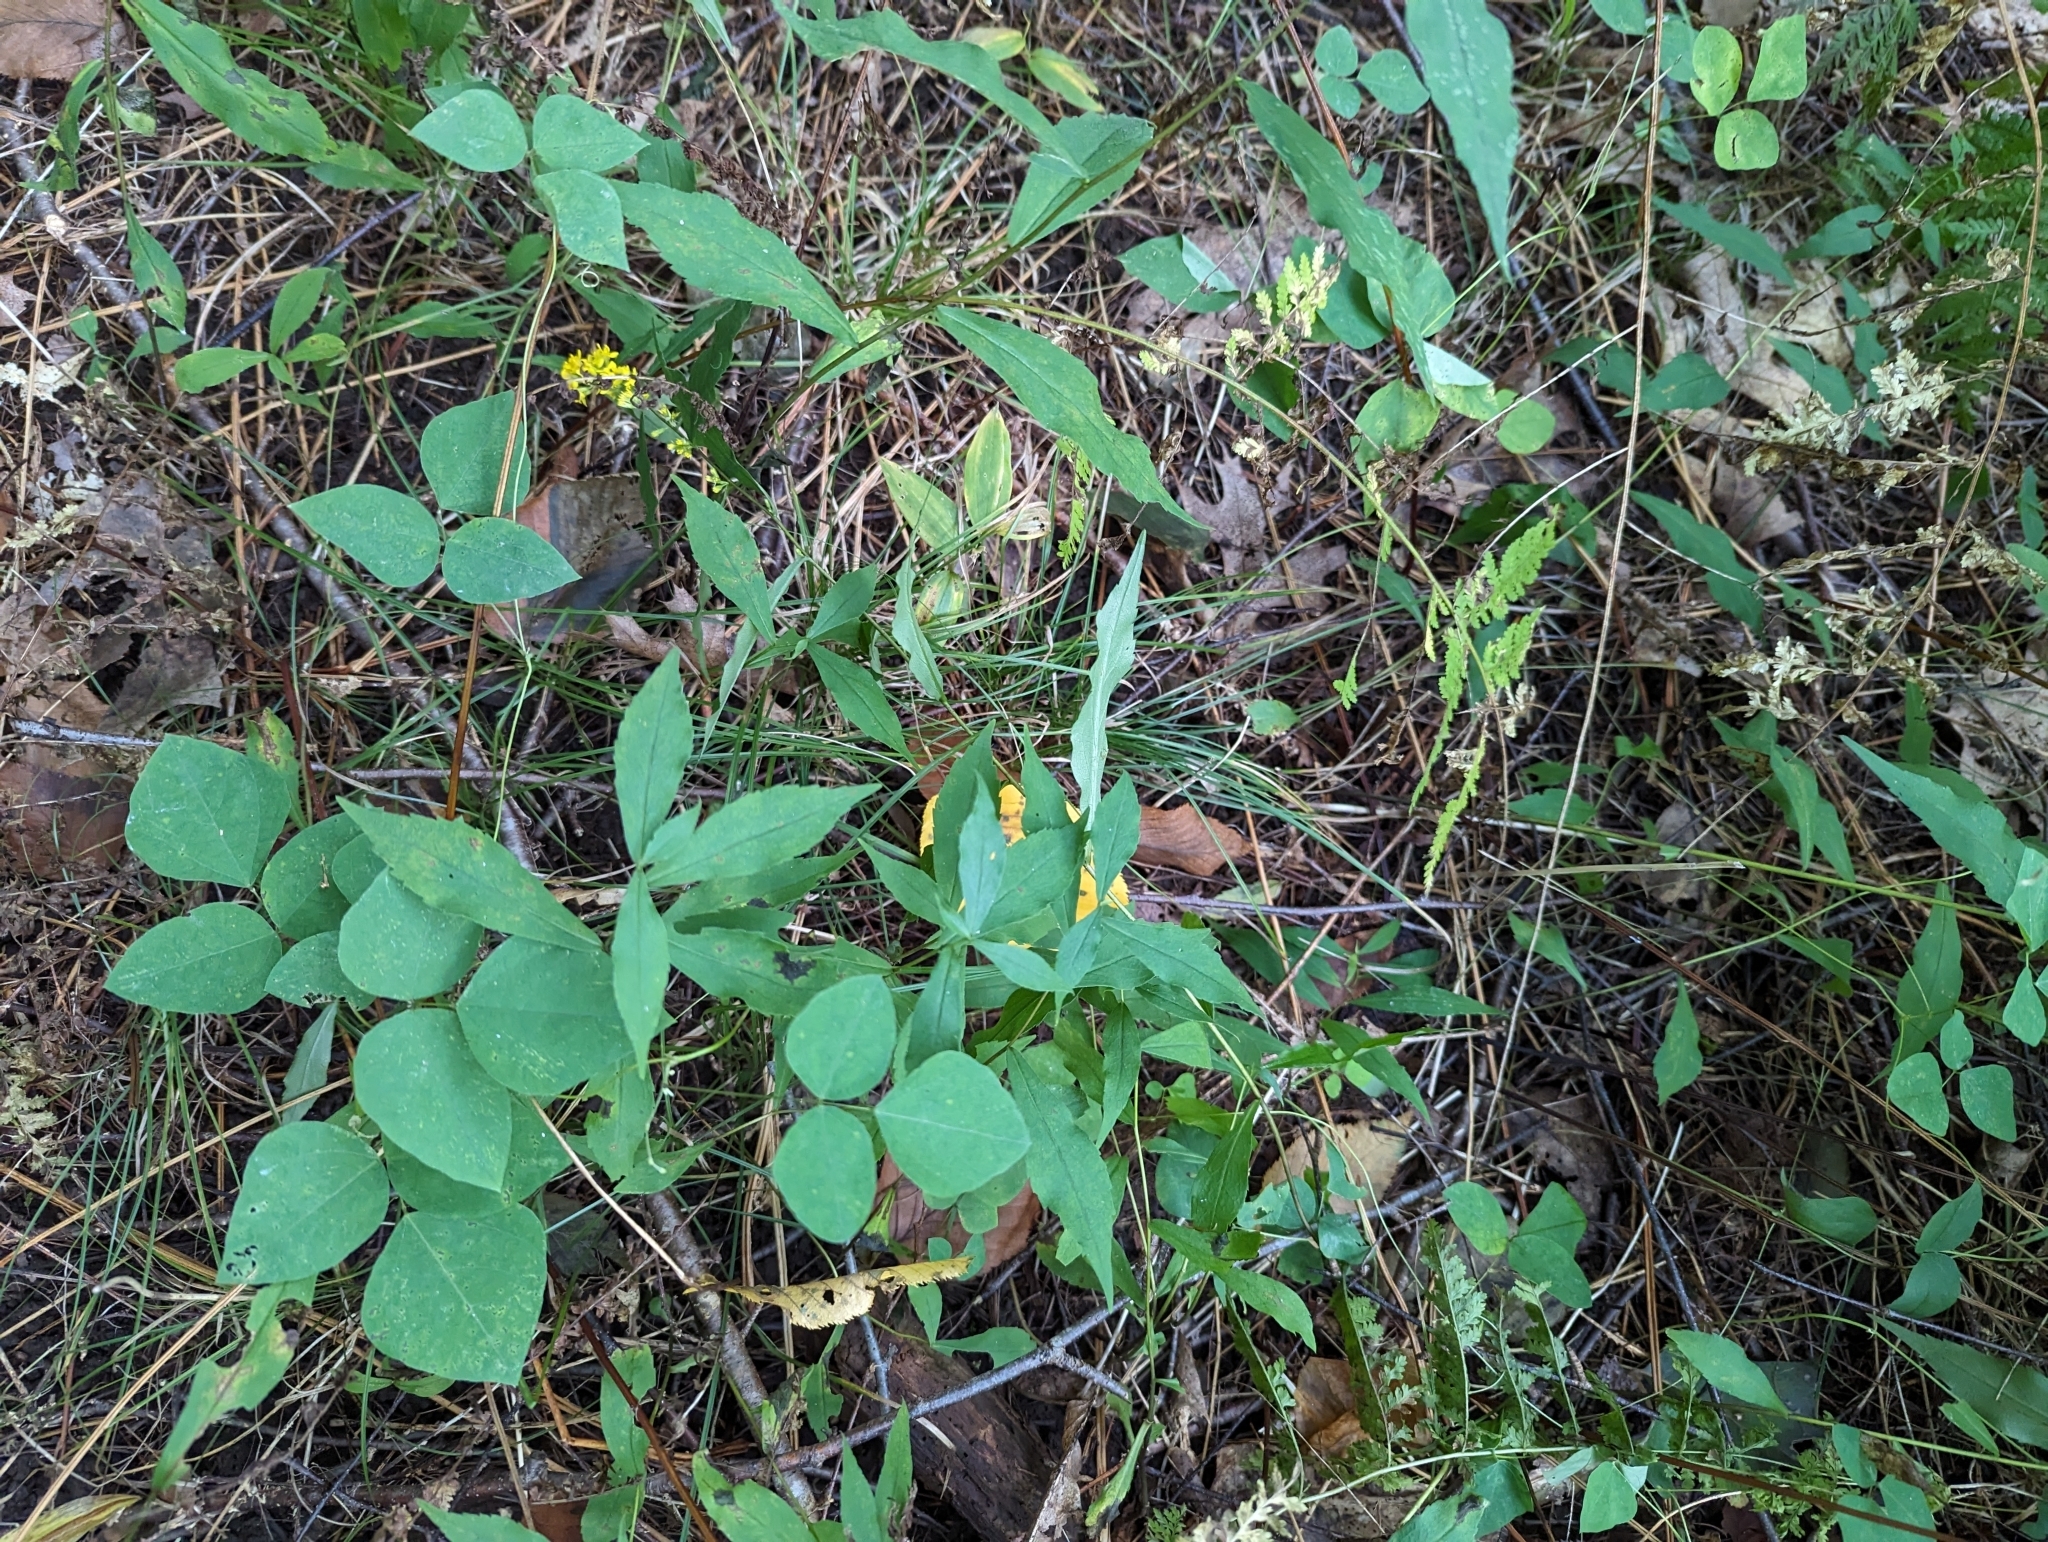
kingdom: Plantae
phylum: Tracheophyta
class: Magnoliopsida
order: Fabales
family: Fabaceae
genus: Amphicarpaea
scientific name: Amphicarpaea bracteata
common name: American hog peanut
